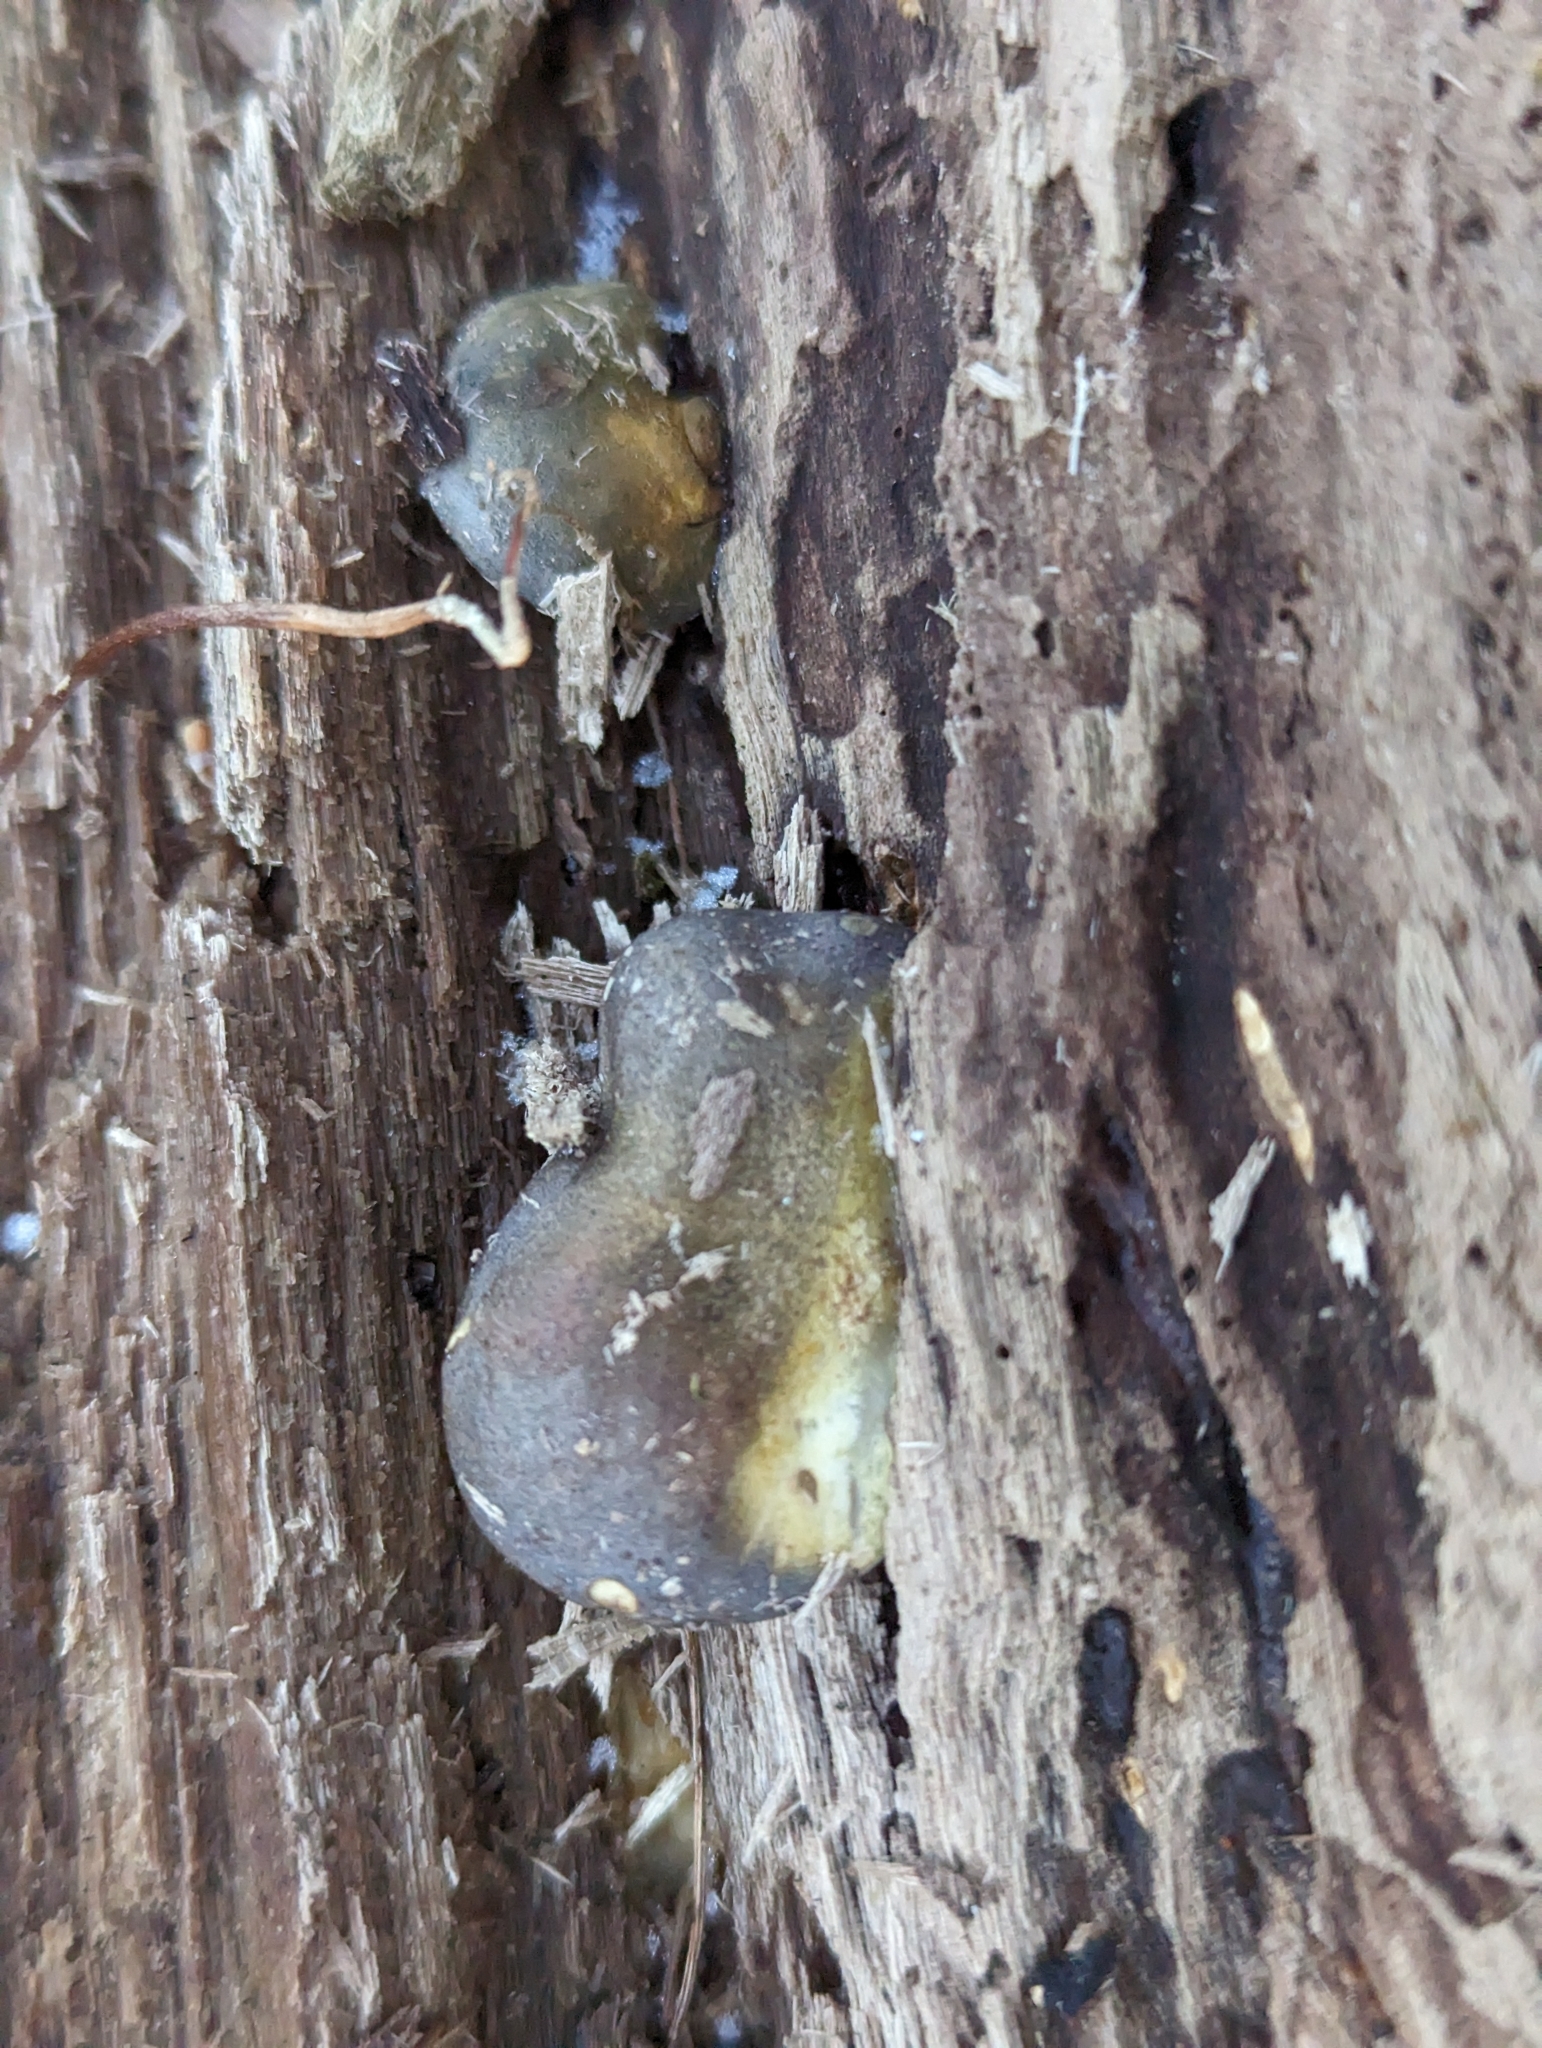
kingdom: Fungi
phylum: Basidiomycota
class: Agaricomycetes
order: Agaricales
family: Sarcomyxaceae
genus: Sarcomyxa
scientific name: Sarcomyxa serotina
